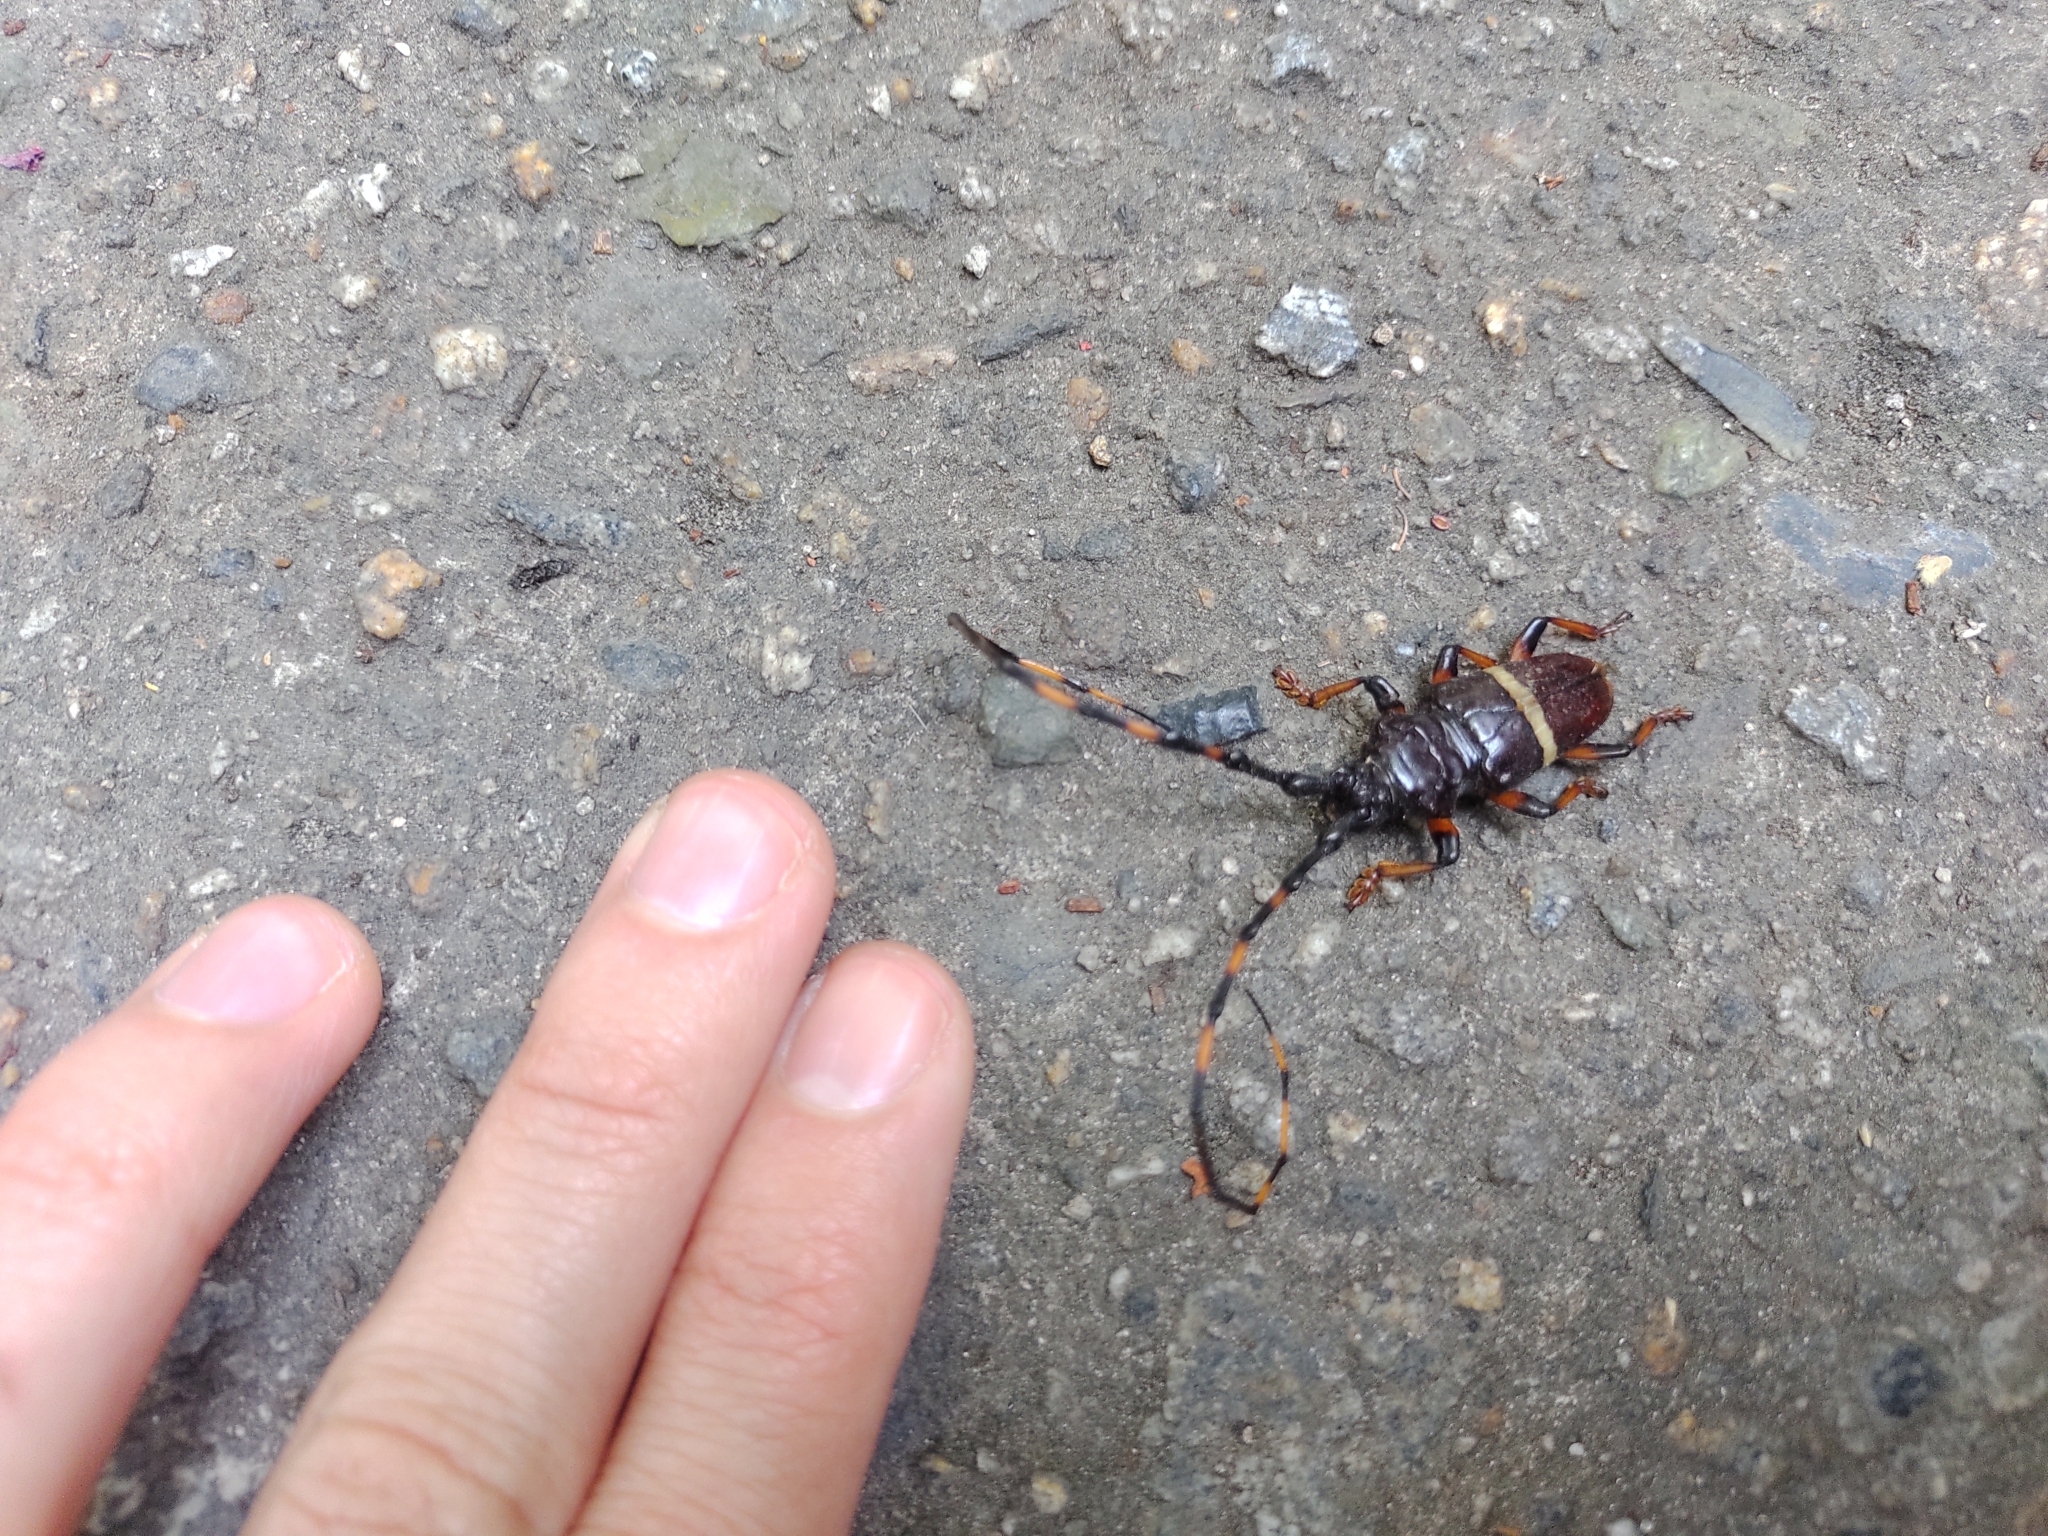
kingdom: Animalia
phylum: Arthropoda
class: Insecta
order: Coleoptera
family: Cerambycidae
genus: Trachyderes
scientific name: Trachyderes succinctus
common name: Mango longhorn
